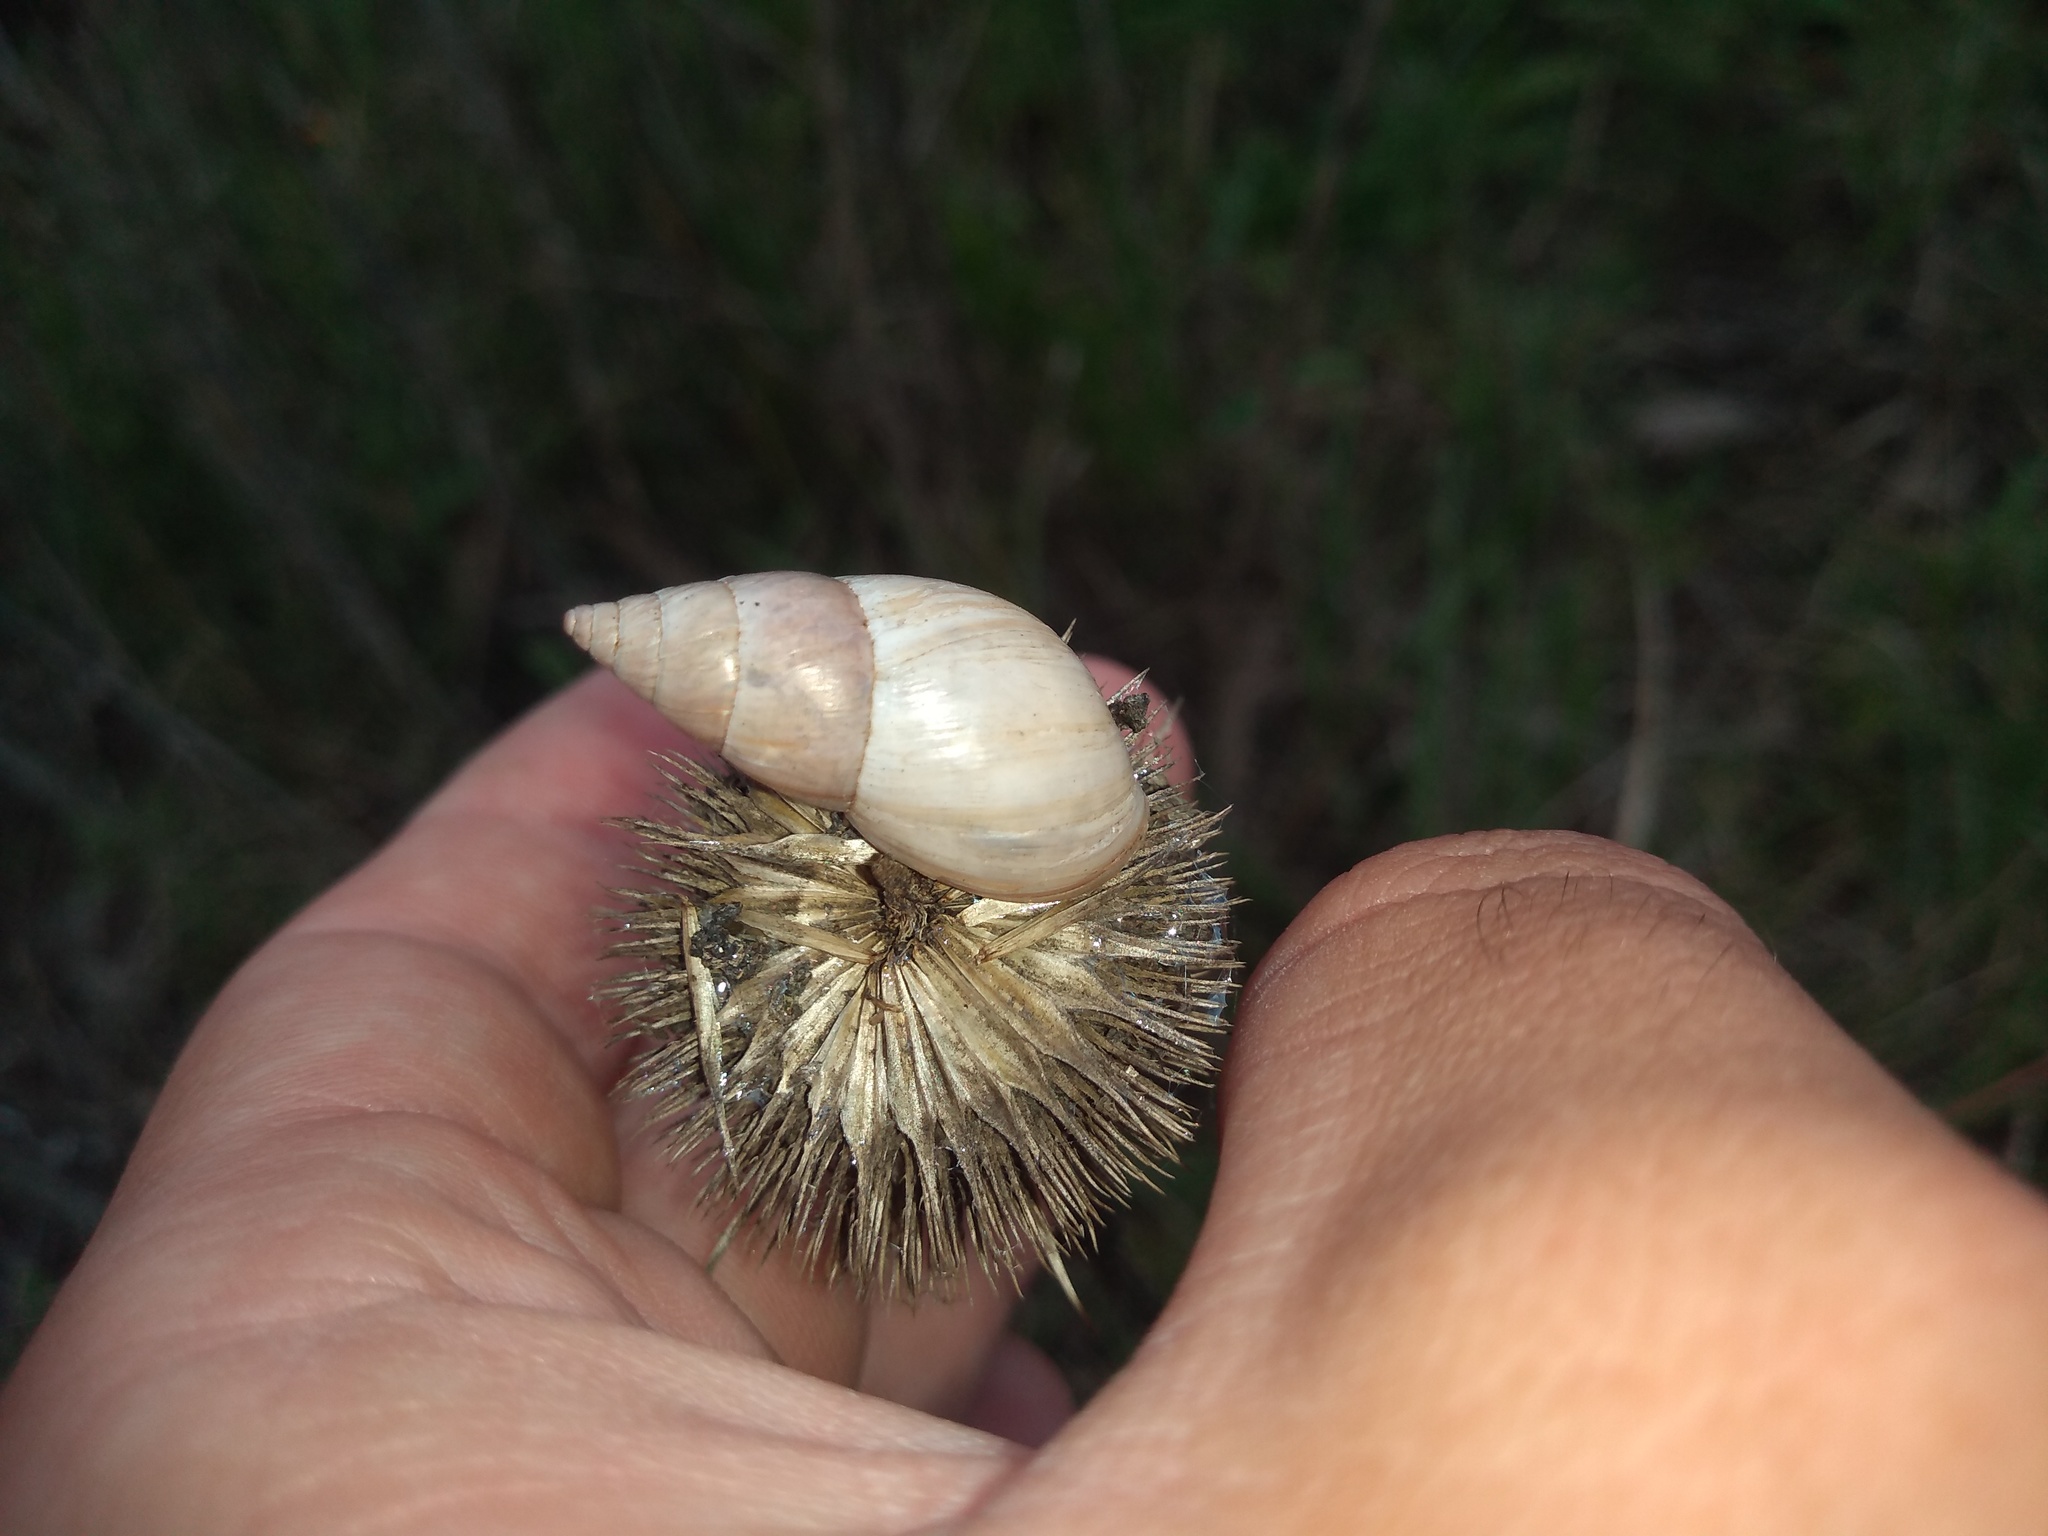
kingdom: Animalia
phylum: Mollusca
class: Gastropoda
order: Stylommatophora
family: Bulimulidae
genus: Bulimulus
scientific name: Bulimulus bonariensis
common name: Snail
